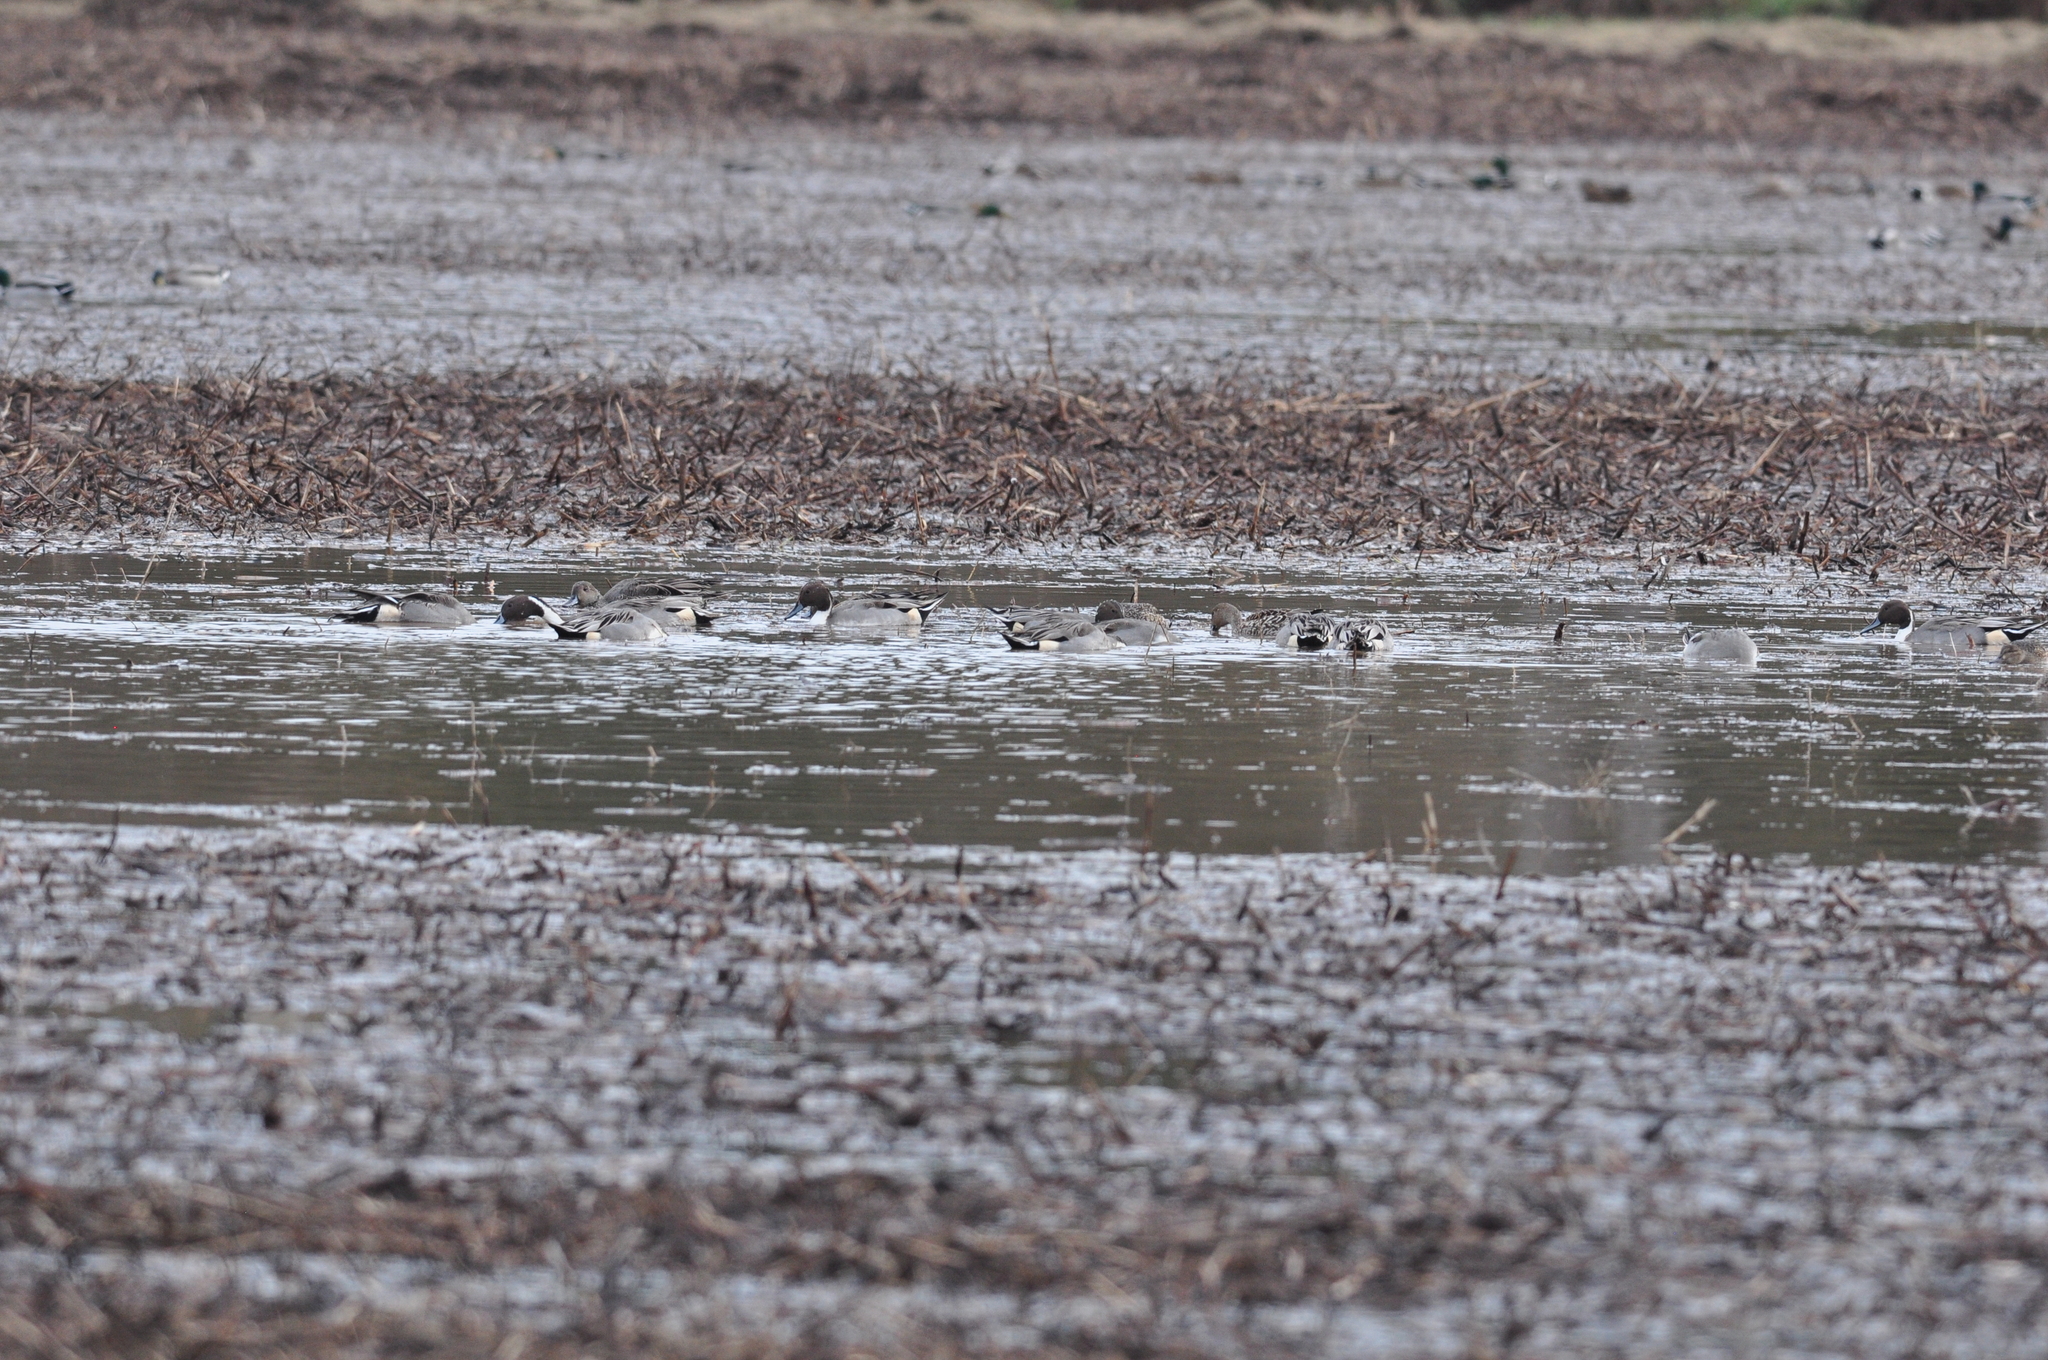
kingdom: Animalia
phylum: Chordata
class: Aves
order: Anseriformes
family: Anatidae
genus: Anas
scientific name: Anas acuta
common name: Northern pintail
